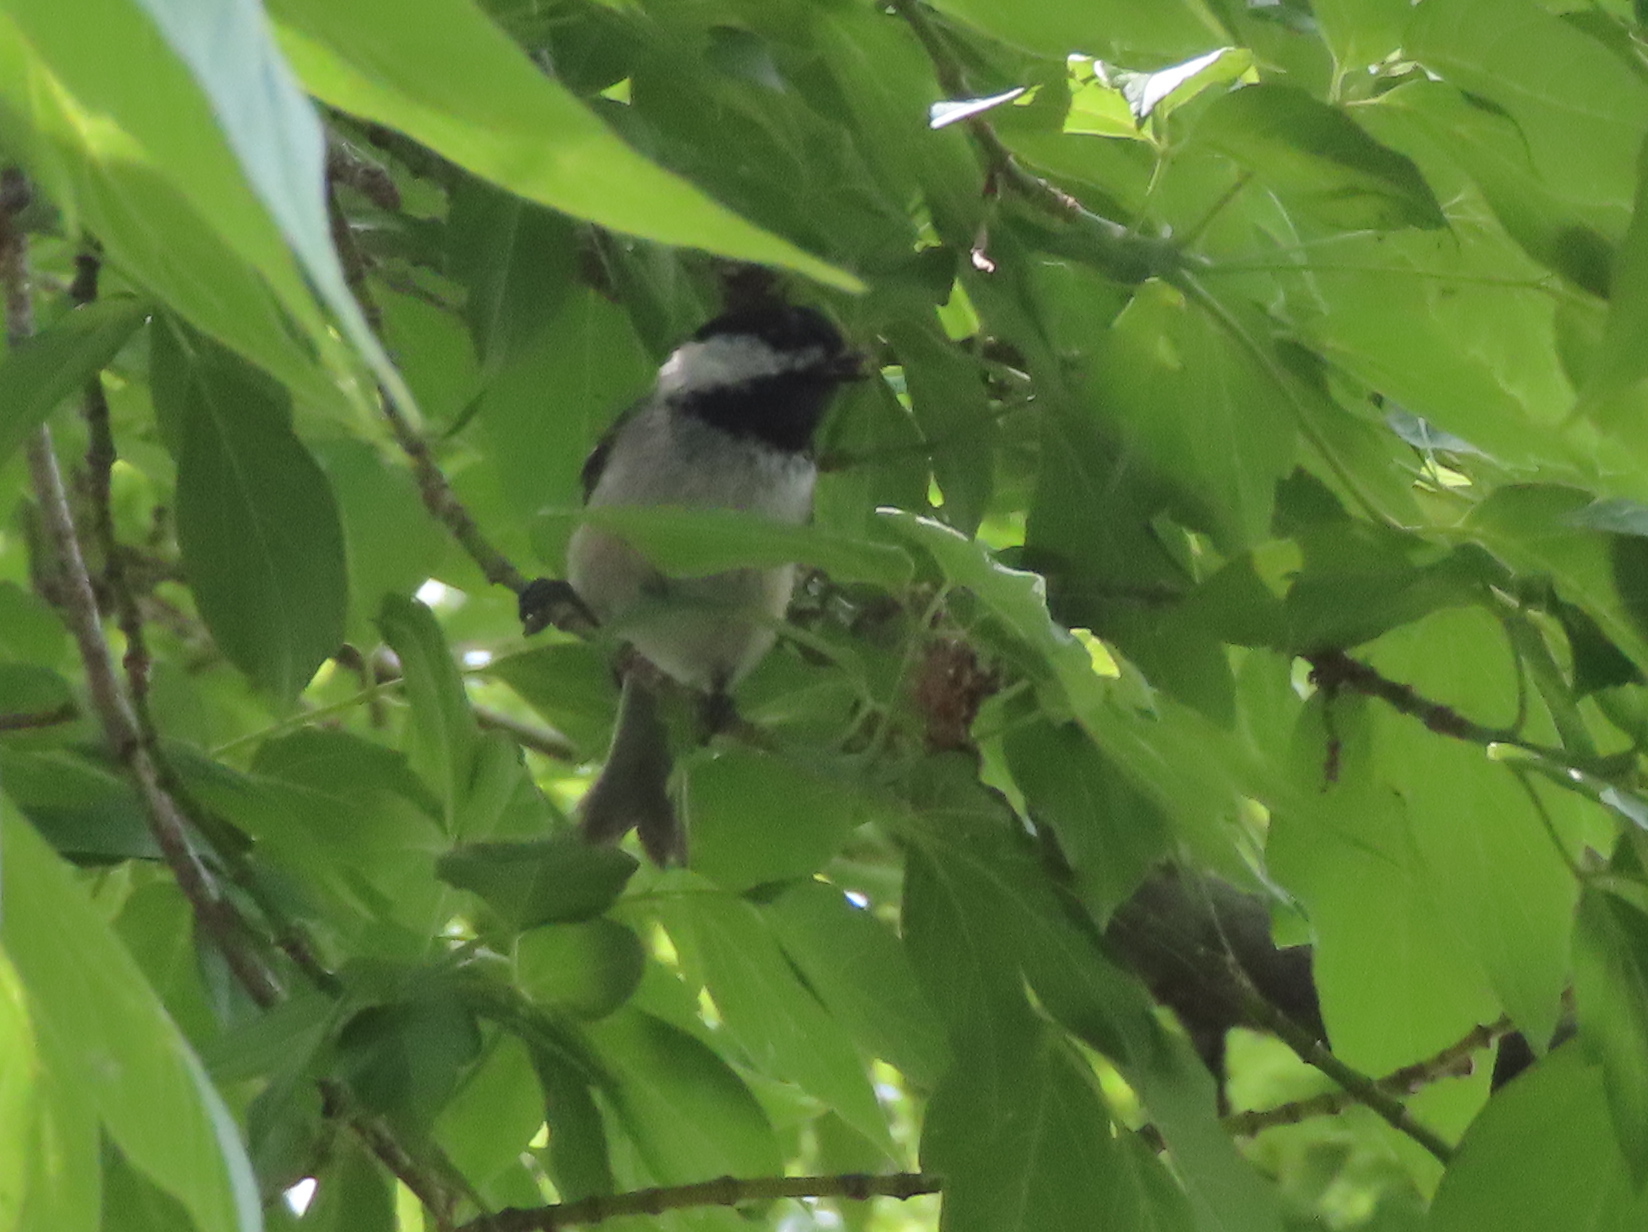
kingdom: Animalia
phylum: Chordata
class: Aves
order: Passeriformes
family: Paridae
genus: Poecile
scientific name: Poecile atricapillus
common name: Black-capped chickadee
